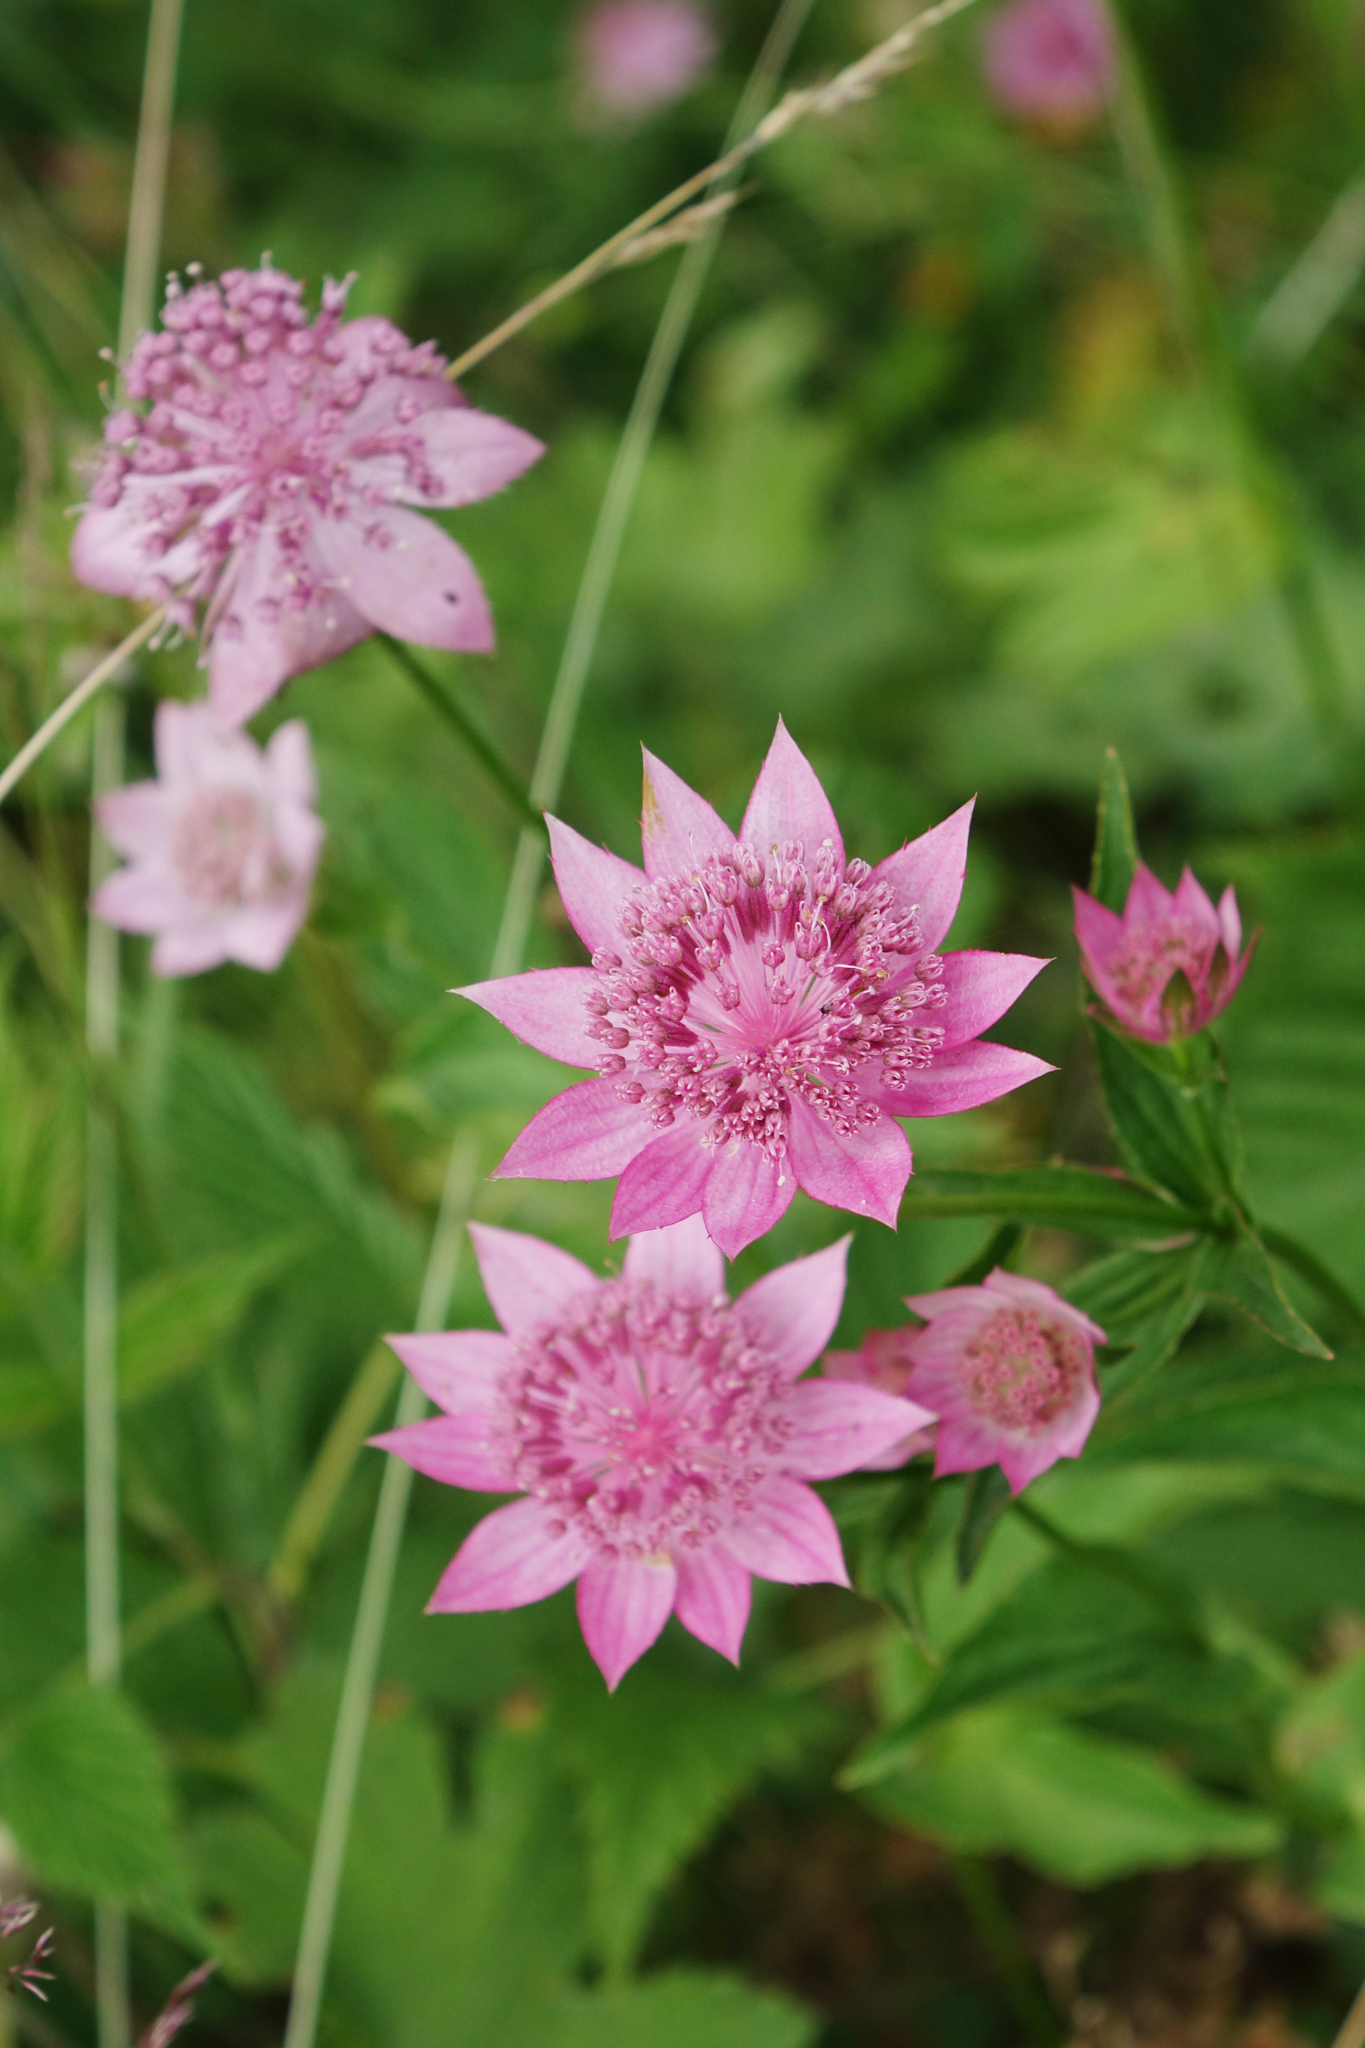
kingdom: Plantae
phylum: Tracheophyta
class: Magnoliopsida
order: Apiales
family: Apiaceae
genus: Astrantia
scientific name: Astrantia maxima
